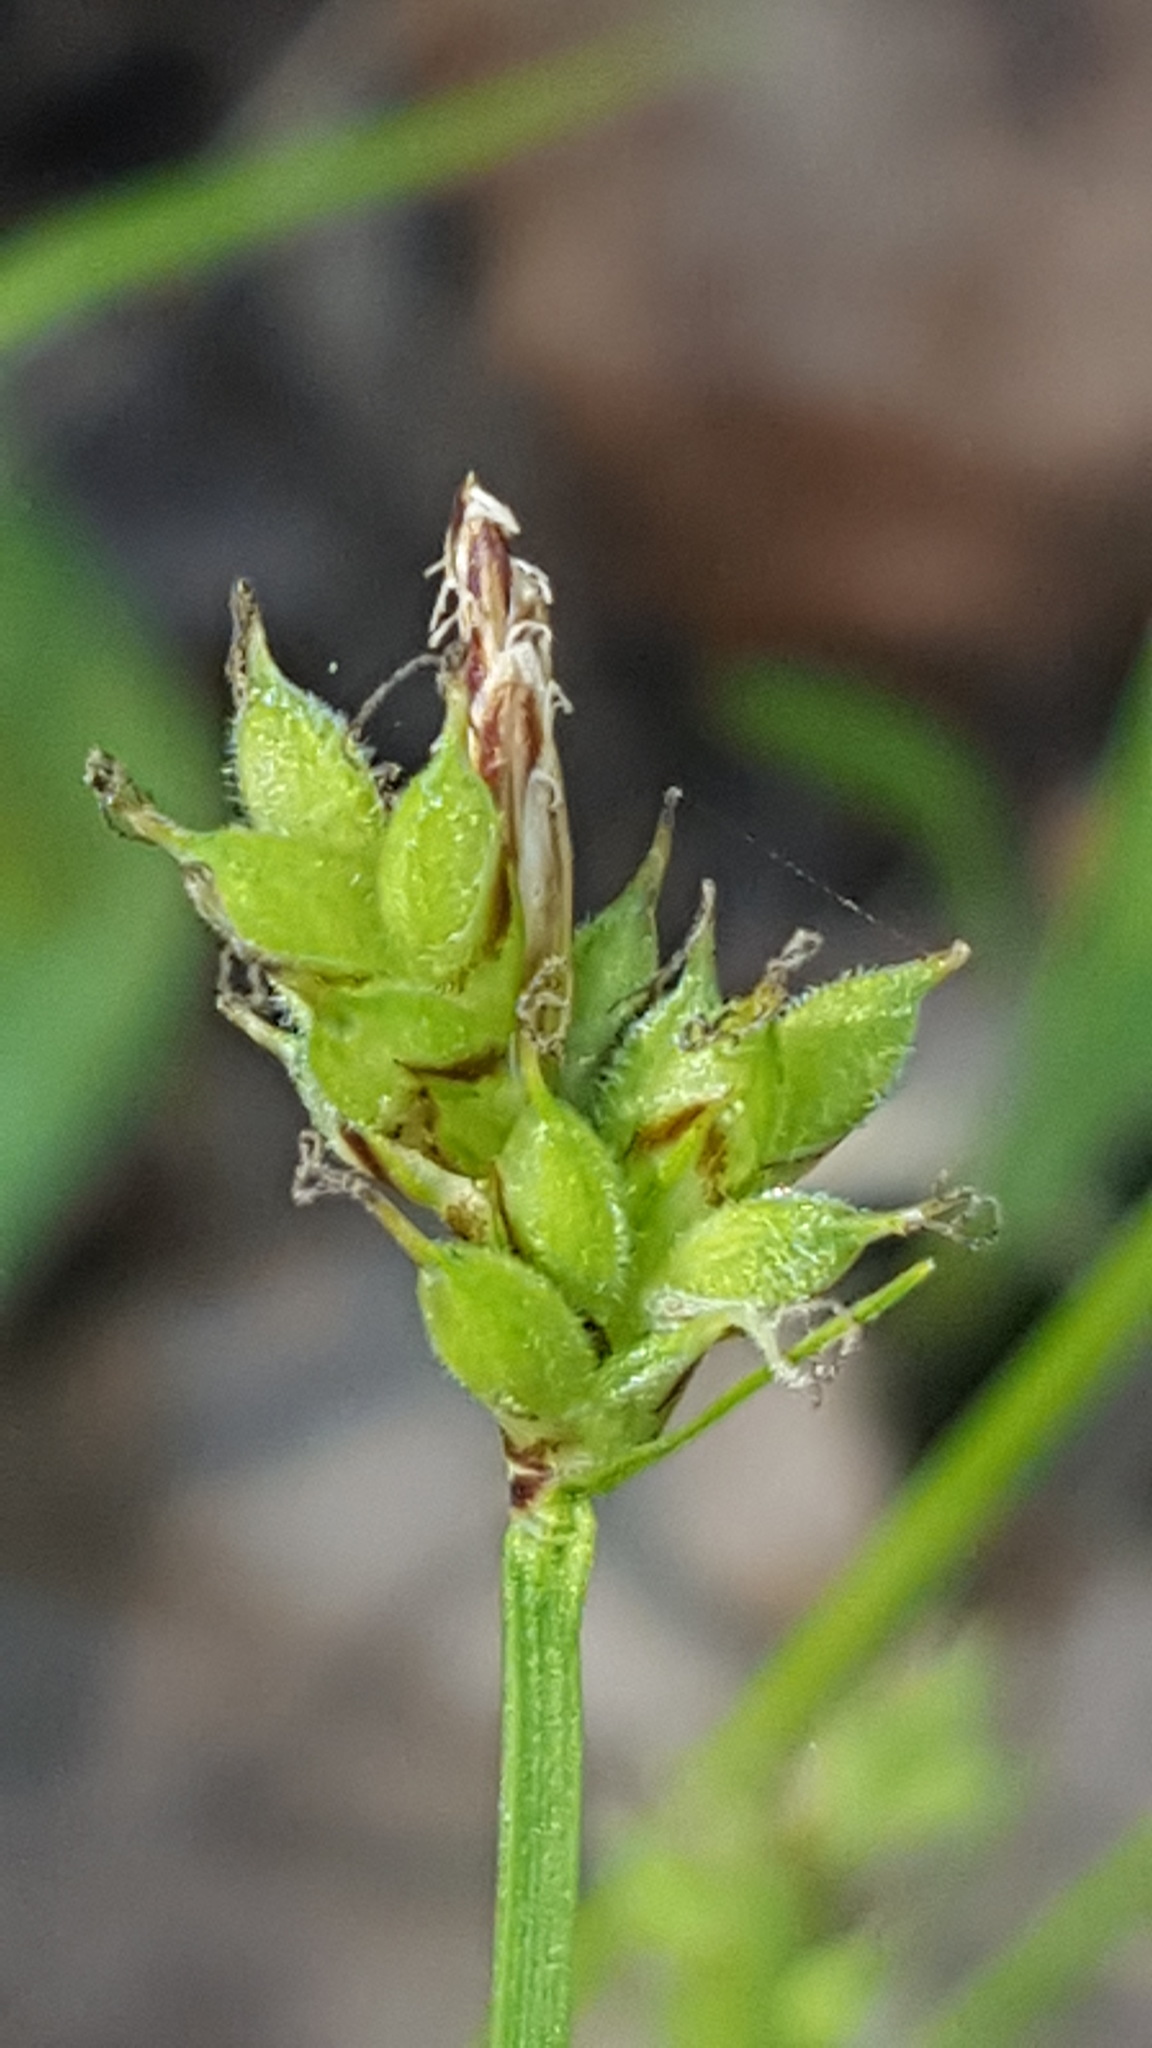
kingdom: Plantae
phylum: Tracheophyta
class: Liliopsida
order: Poales
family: Cyperaceae
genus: Carex
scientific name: Carex peckii
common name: Peck's oak sedge
